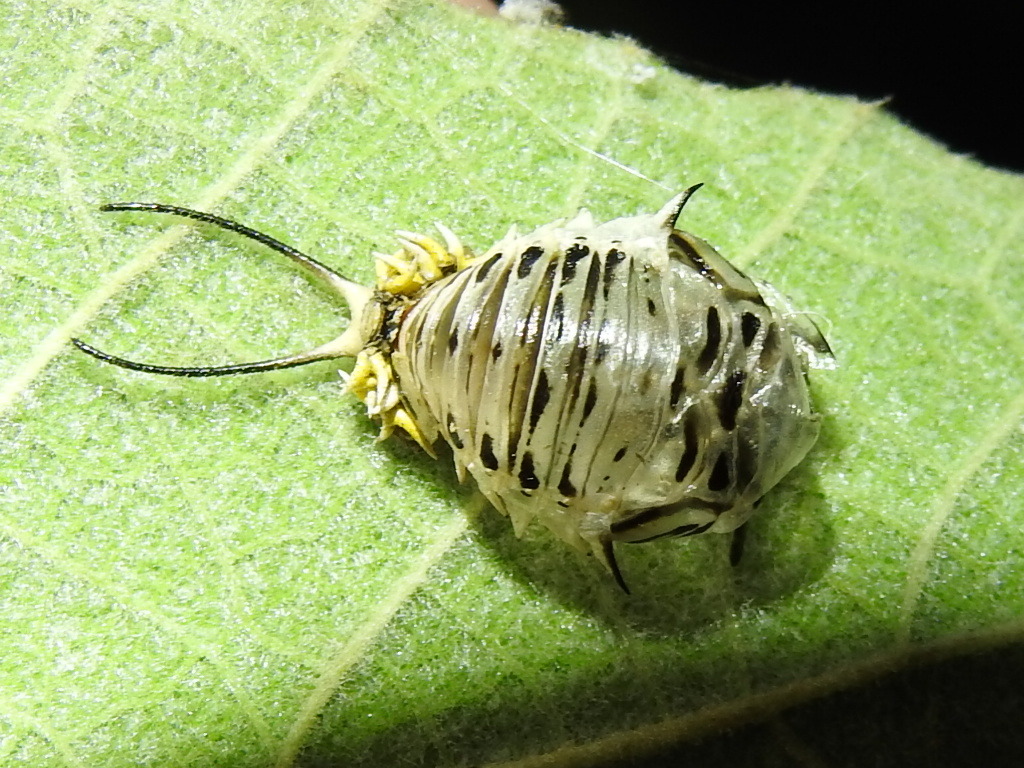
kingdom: Animalia
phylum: Arthropoda
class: Insecta
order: Coleoptera
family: Chrysomelidae
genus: Physonota
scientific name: Physonota alutacea
